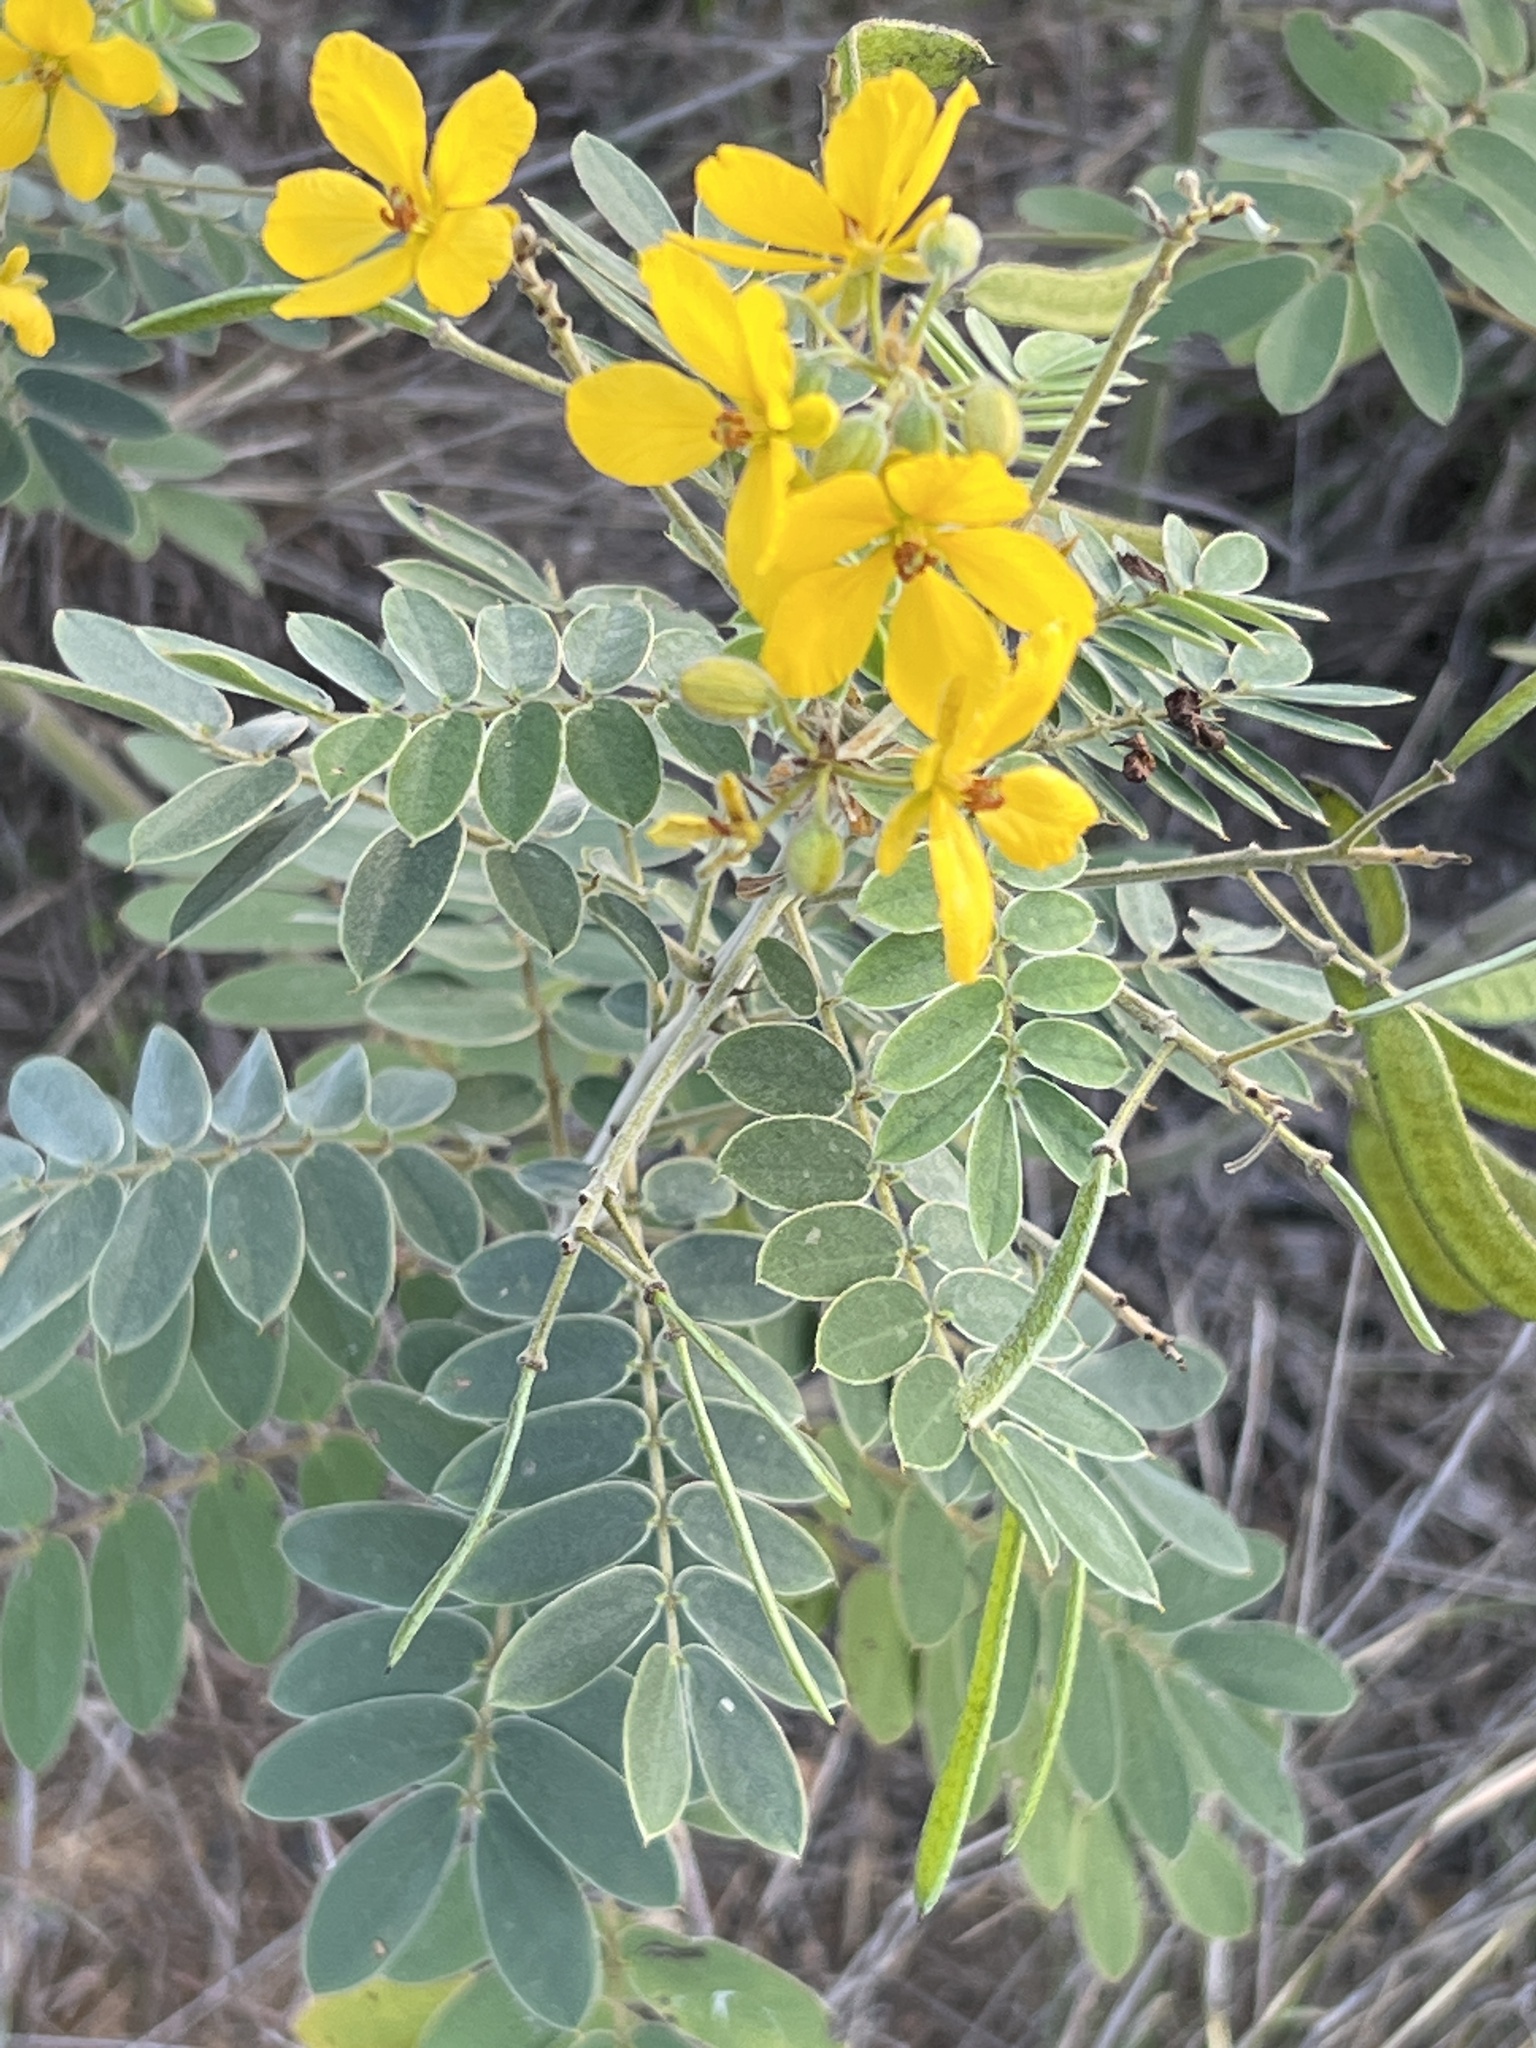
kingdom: Plantae
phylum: Tracheophyta
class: Magnoliopsida
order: Fabales
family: Fabaceae
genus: Senna
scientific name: Senna lindheimeriana
